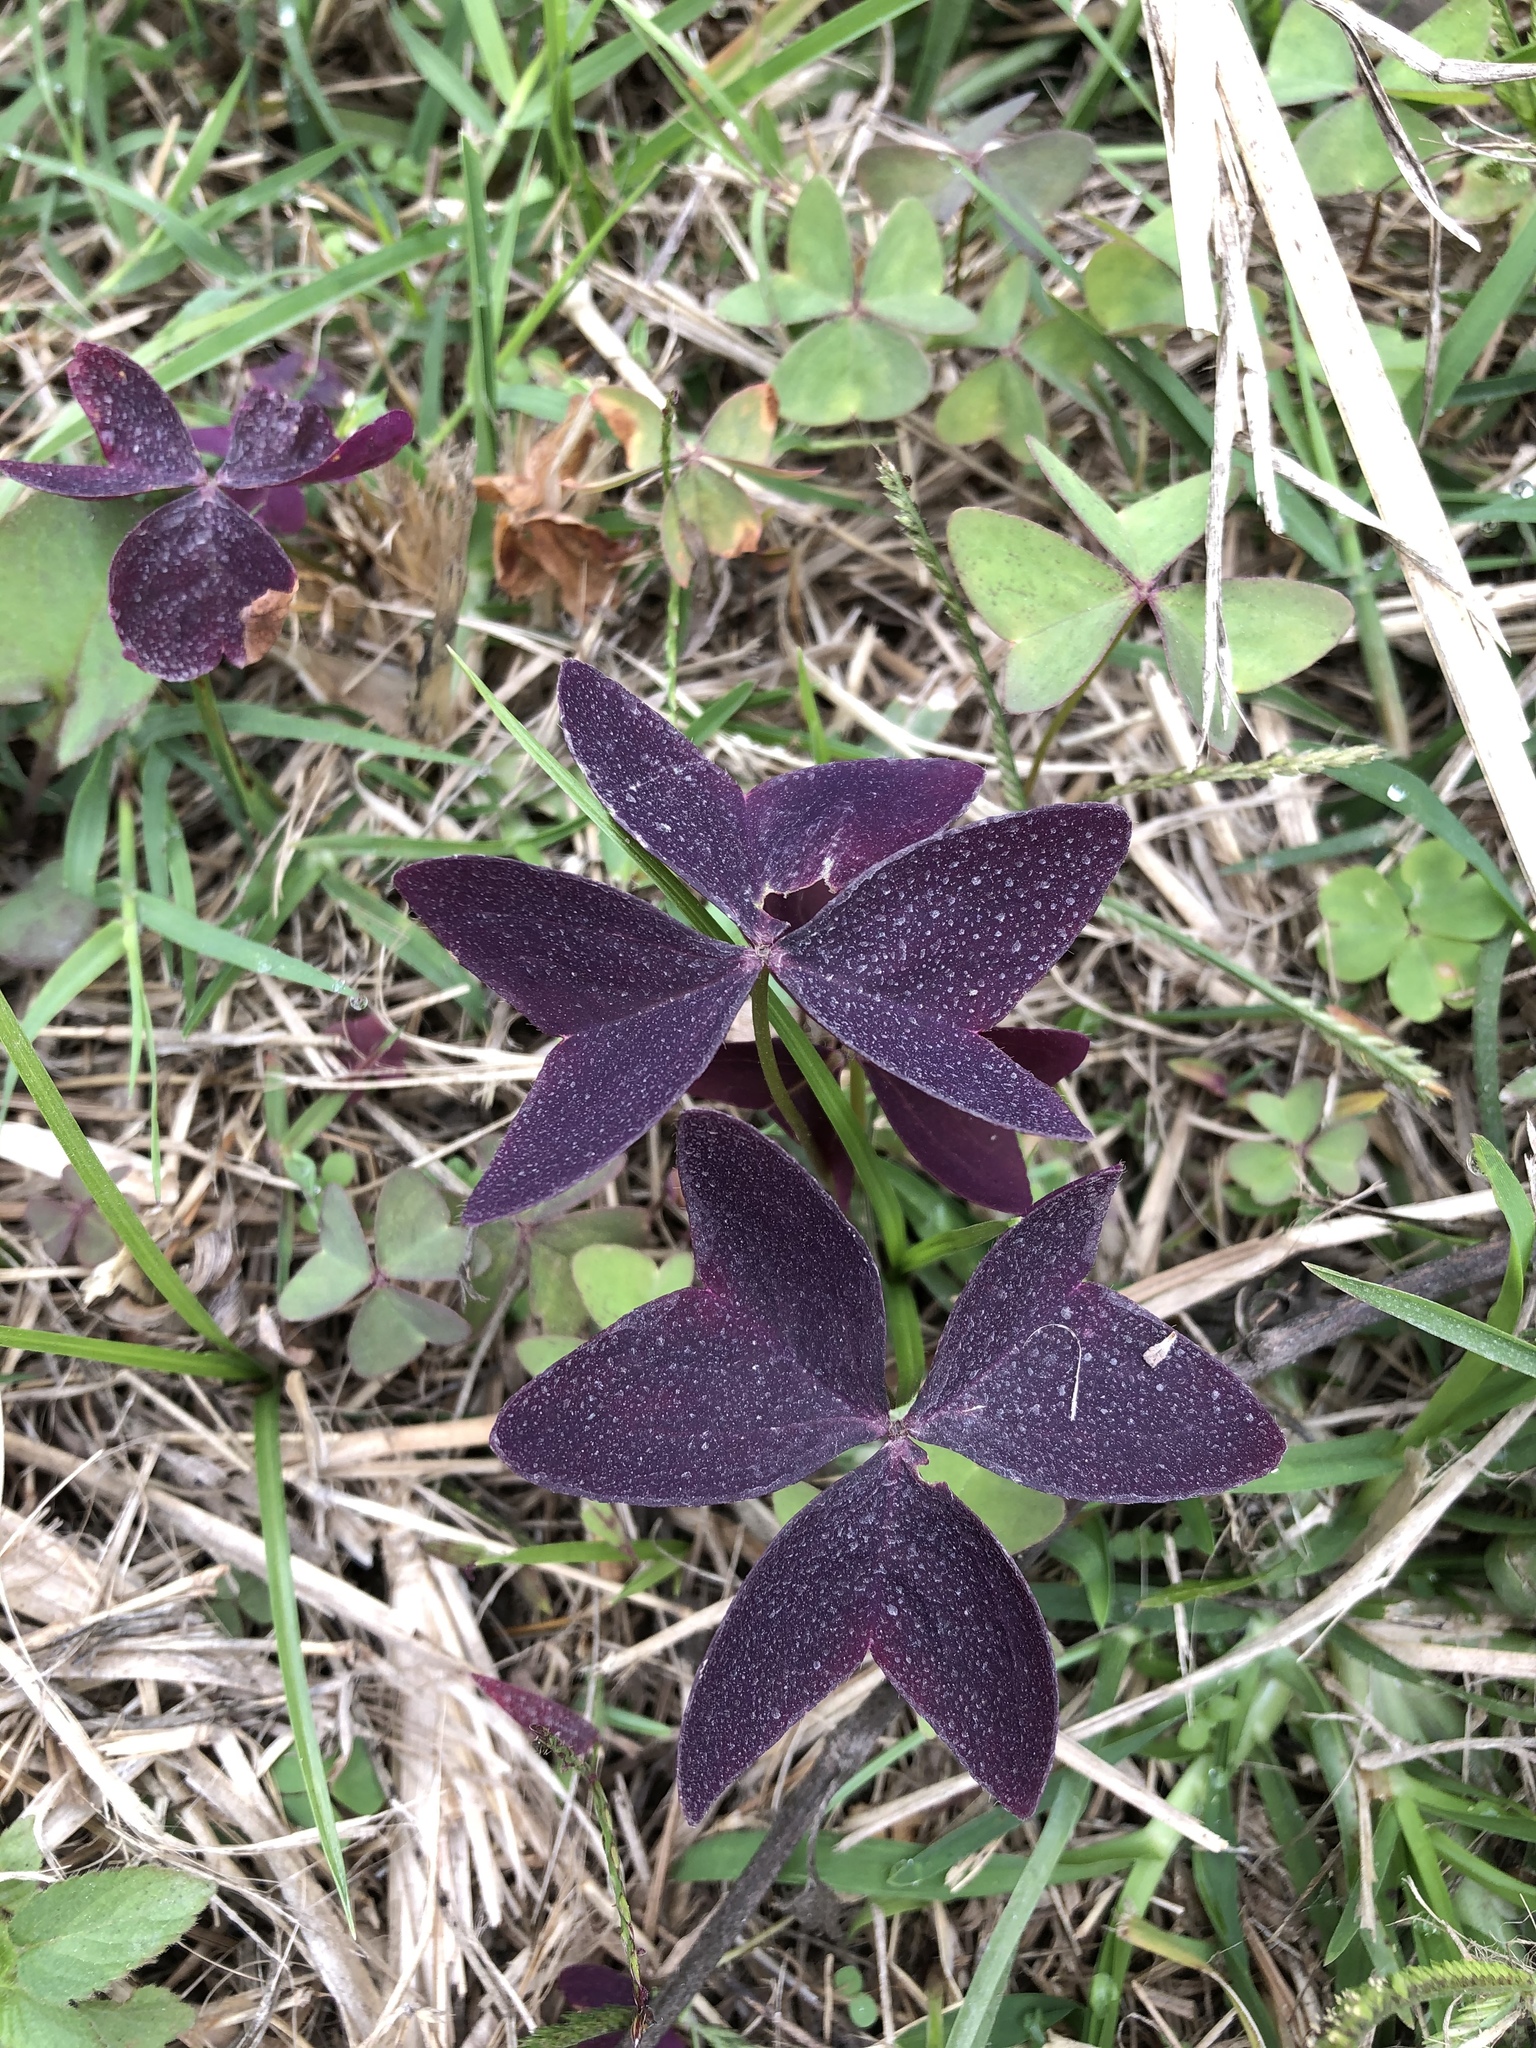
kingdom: Plantae
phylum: Tracheophyta
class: Magnoliopsida
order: Oxalidales
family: Oxalidaceae
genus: Oxalis
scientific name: Oxalis triangularis
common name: Wood sorrel
